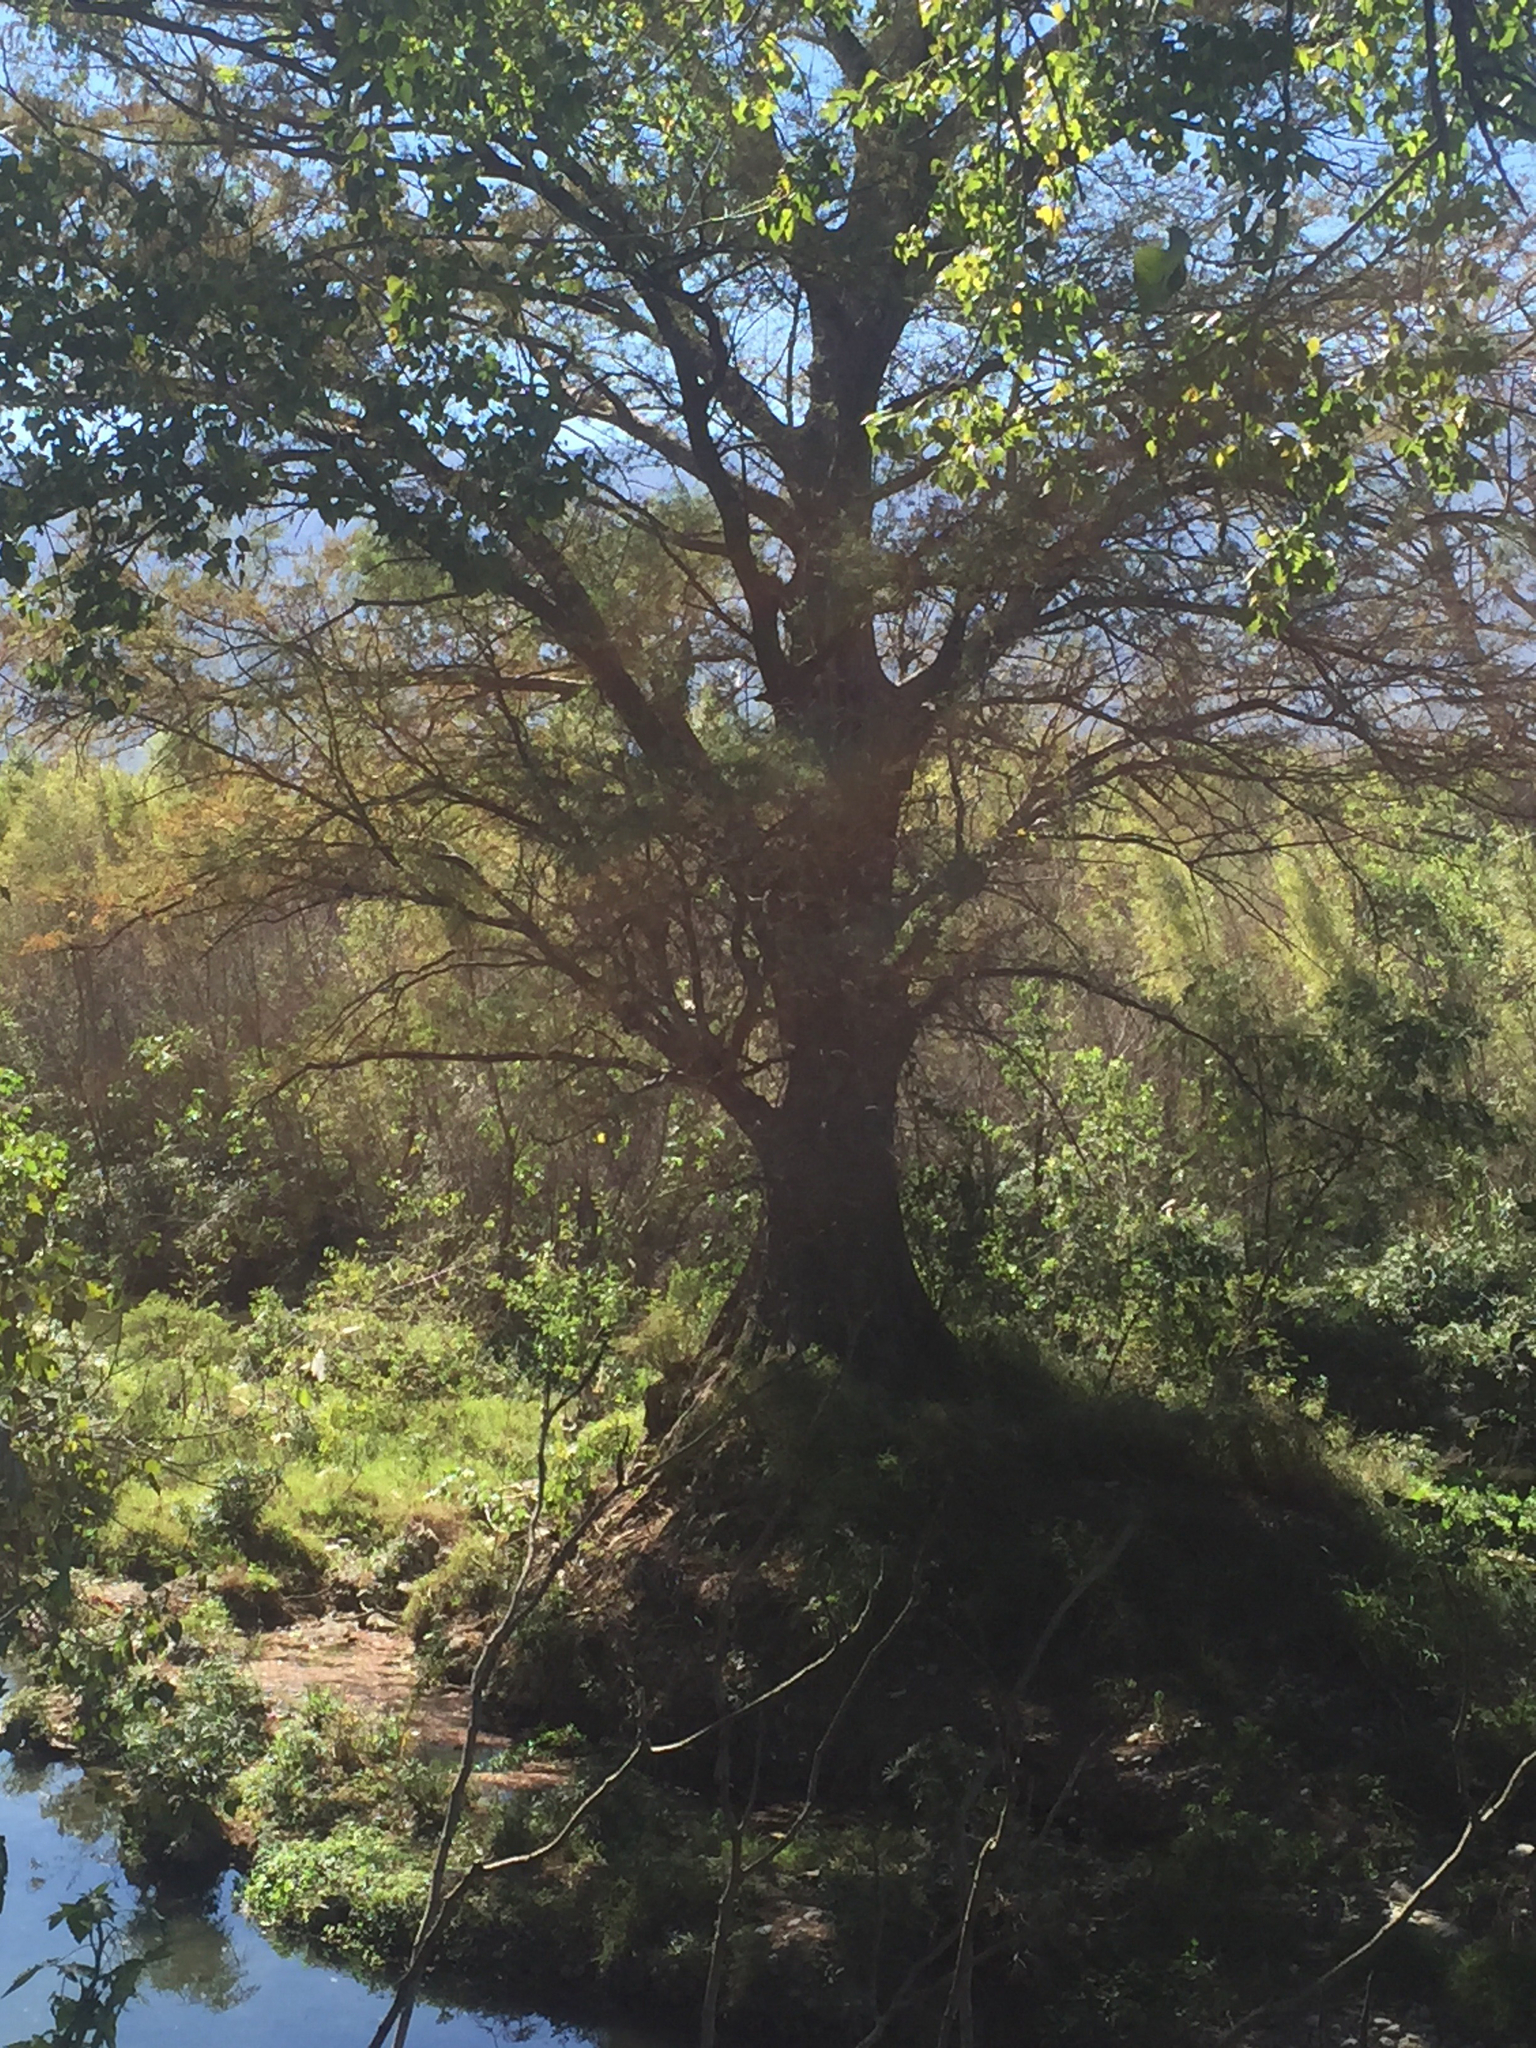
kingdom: Plantae
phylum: Tracheophyta
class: Pinopsida
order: Pinales
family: Cupressaceae
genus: Taxodium
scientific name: Taxodium mucronatum
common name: Montezume bald cypress
